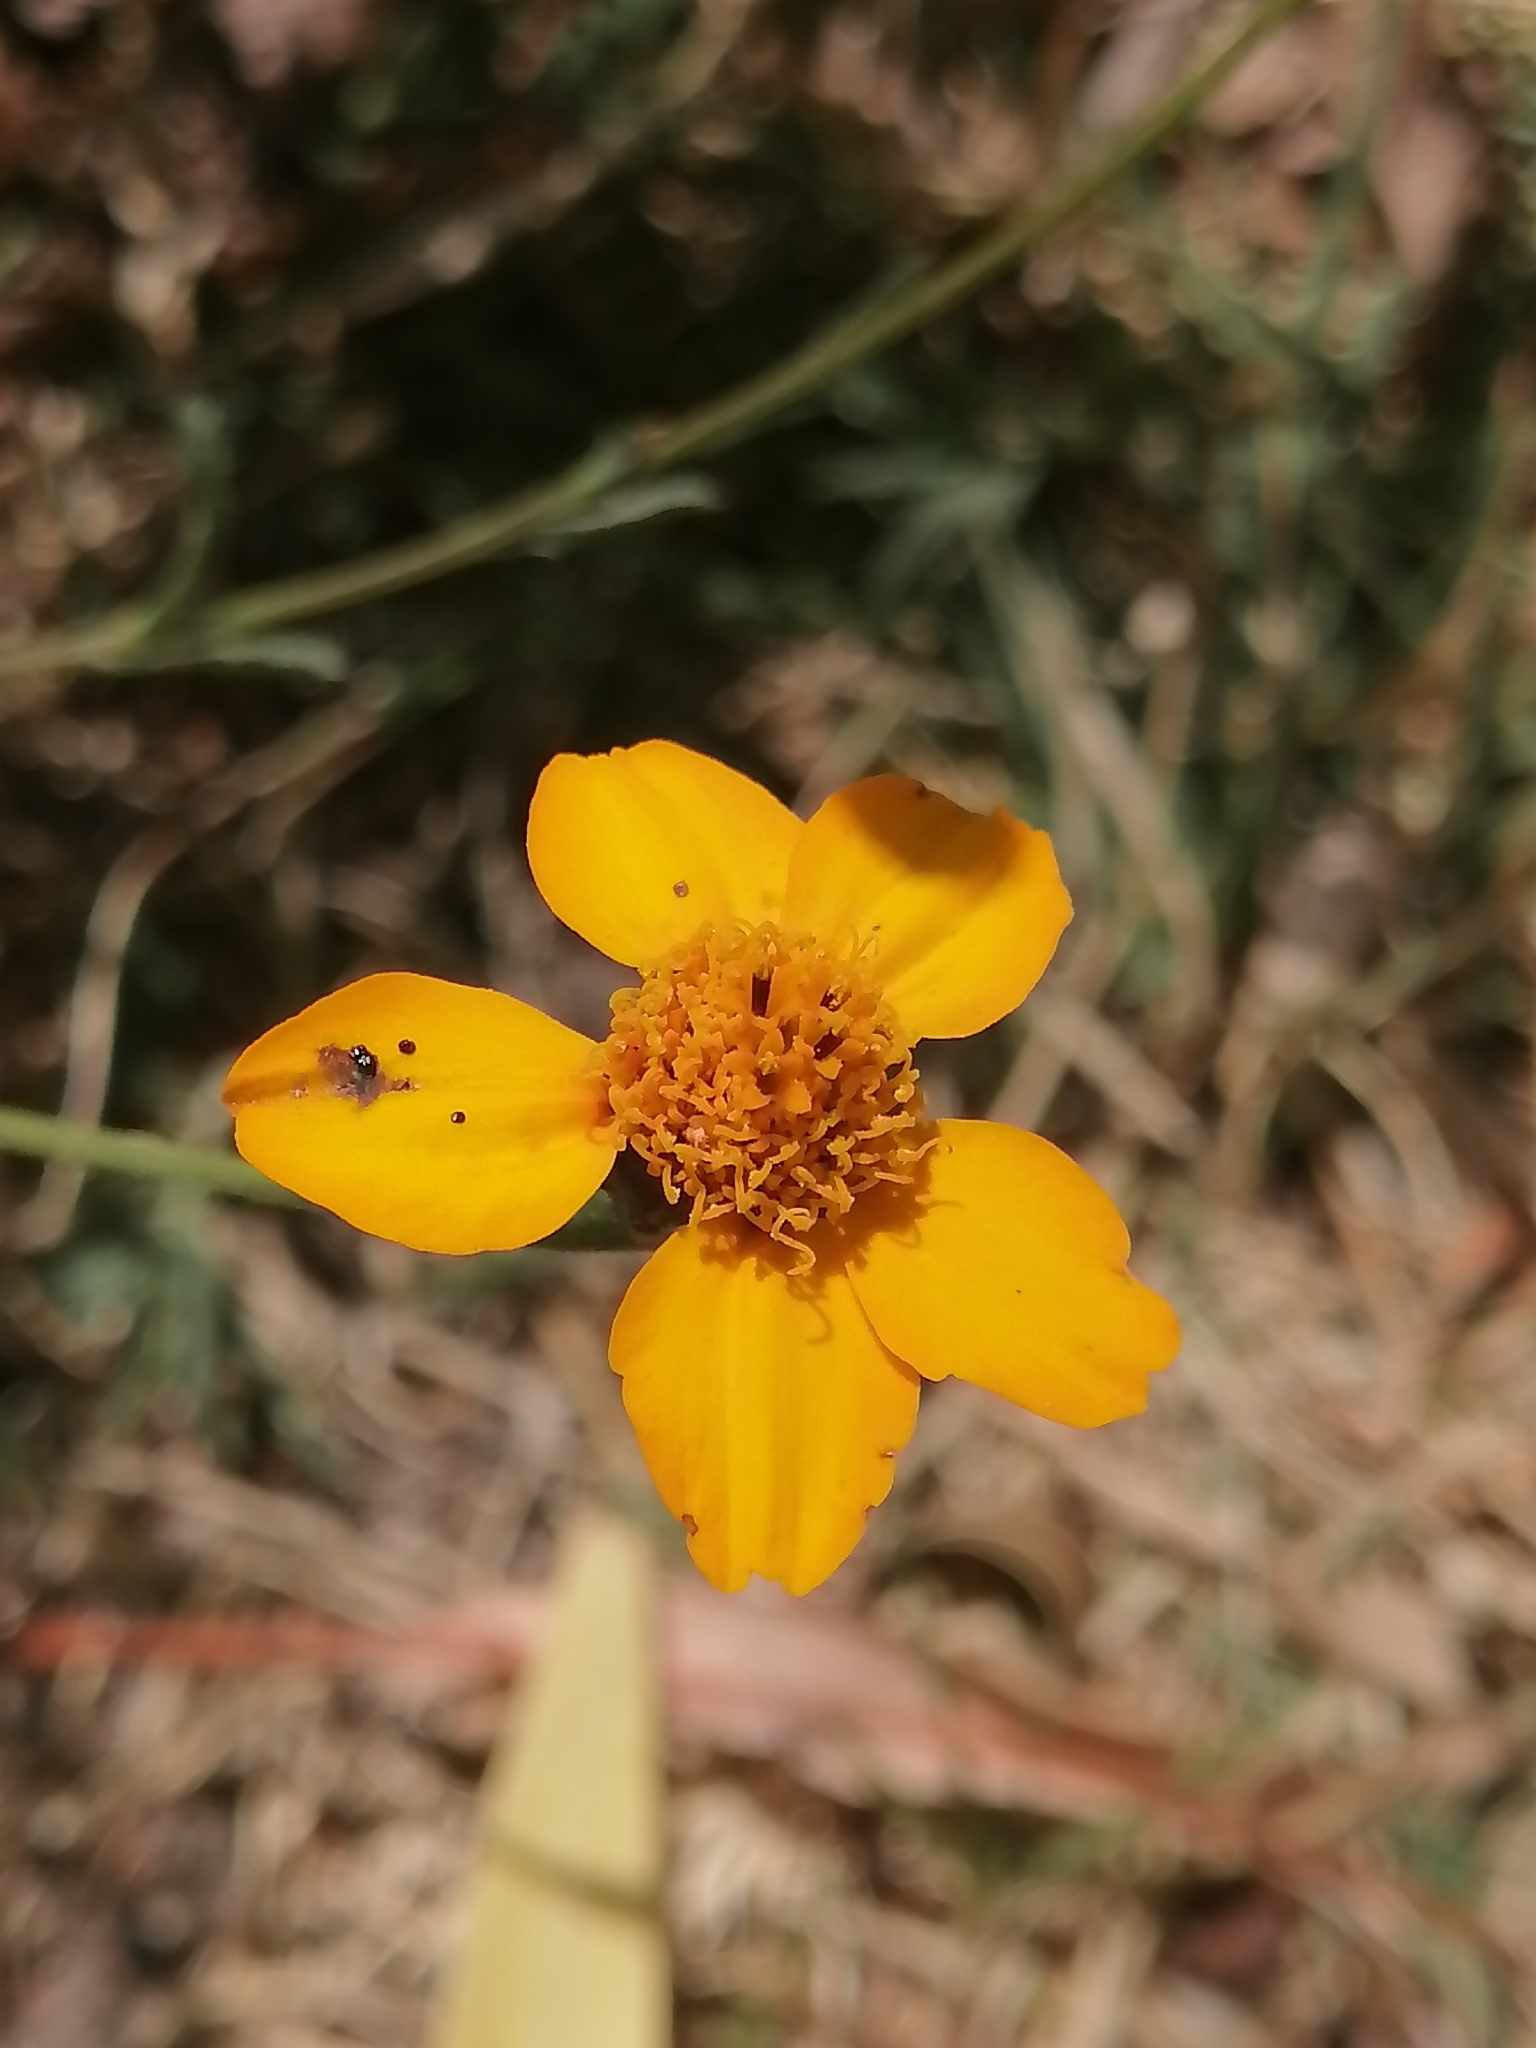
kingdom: Plantae
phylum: Tracheophyta
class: Magnoliopsida
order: Asterales
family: Asteraceae
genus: Dyssodia
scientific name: Dyssodia tagetiflora
